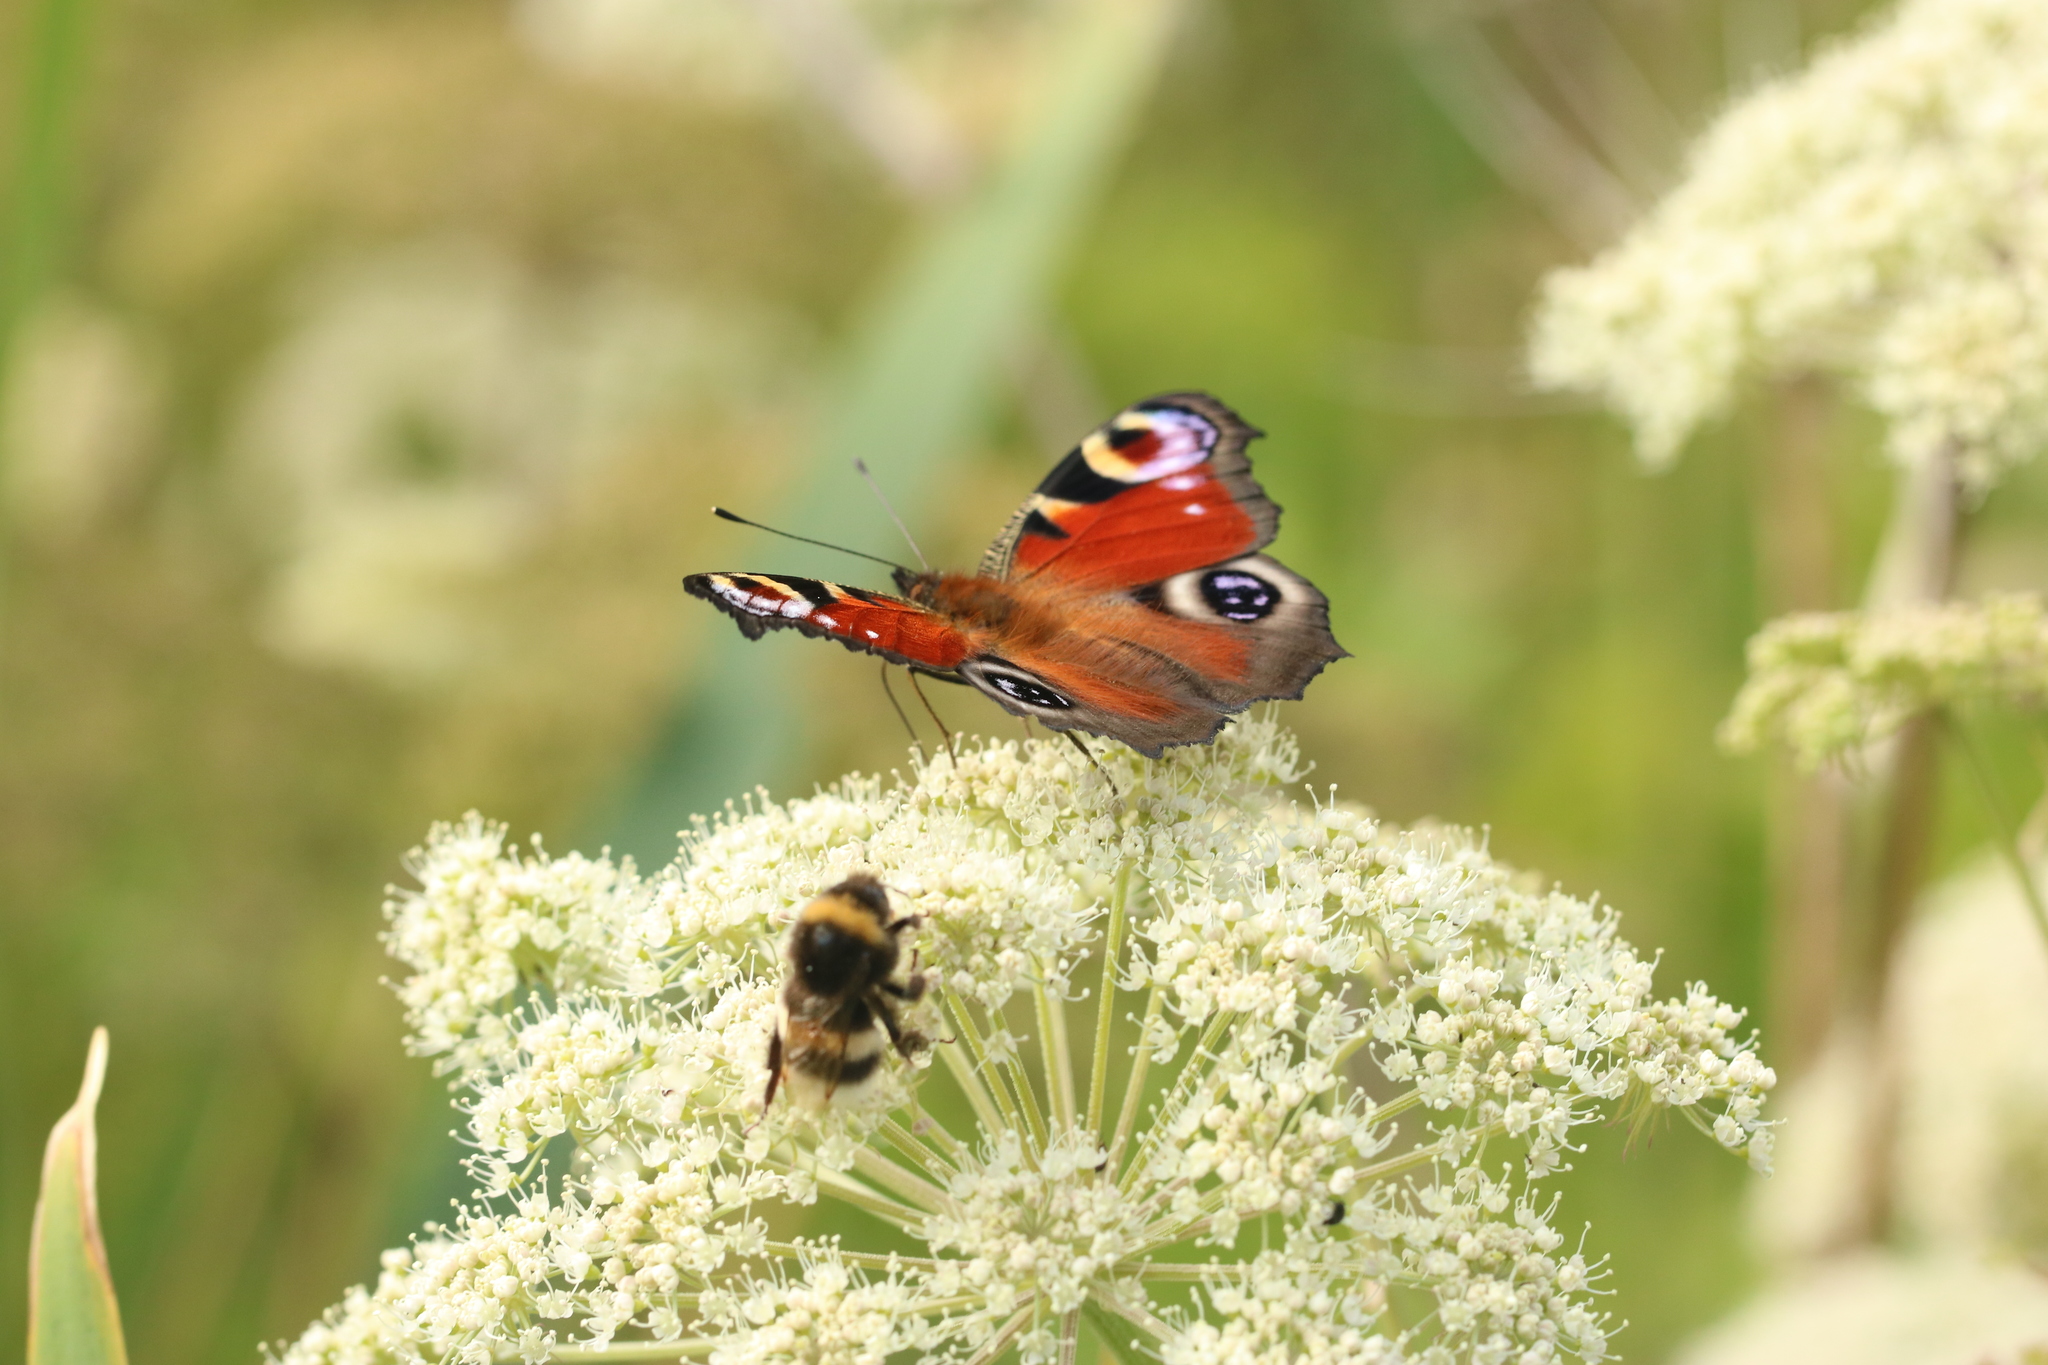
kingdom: Animalia
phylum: Arthropoda
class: Insecta
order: Lepidoptera
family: Nymphalidae
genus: Aglais
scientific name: Aglais io
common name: Peacock
